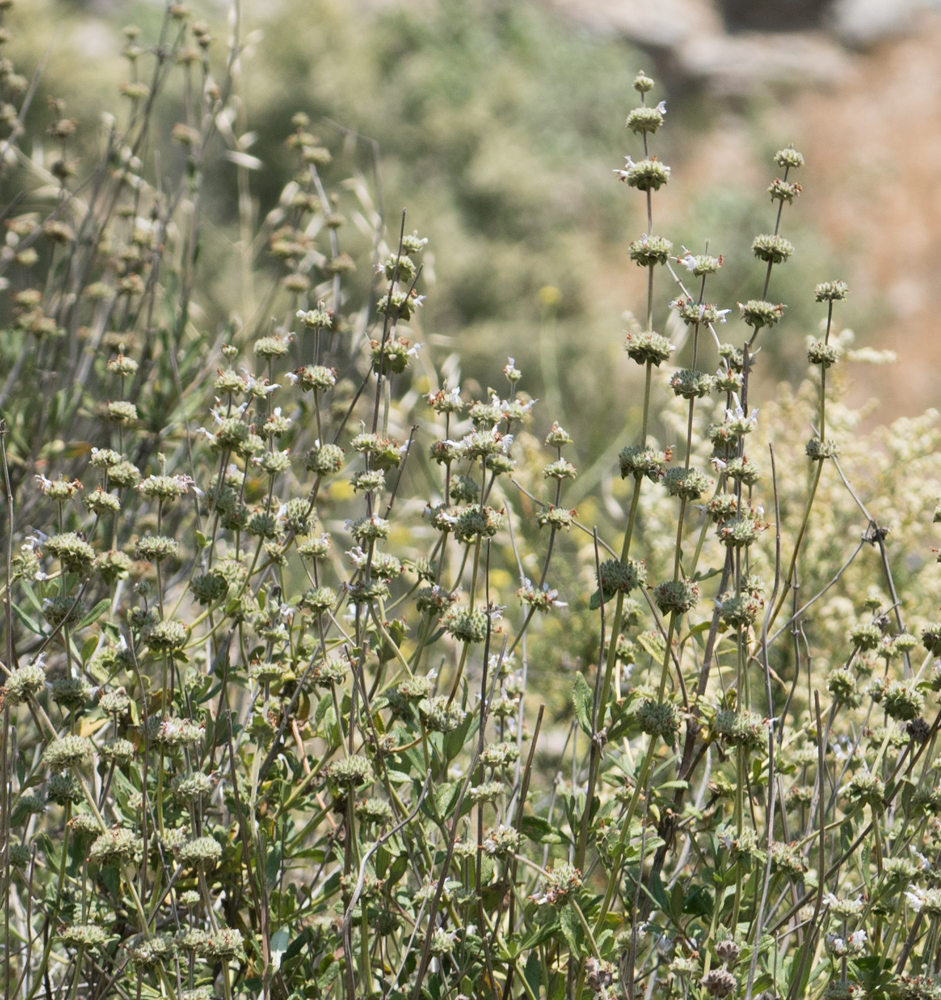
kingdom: Plantae
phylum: Tracheophyta
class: Magnoliopsida
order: Lamiales
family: Lamiaceae
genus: Salvia
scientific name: Salvia mellifera
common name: Black sage
